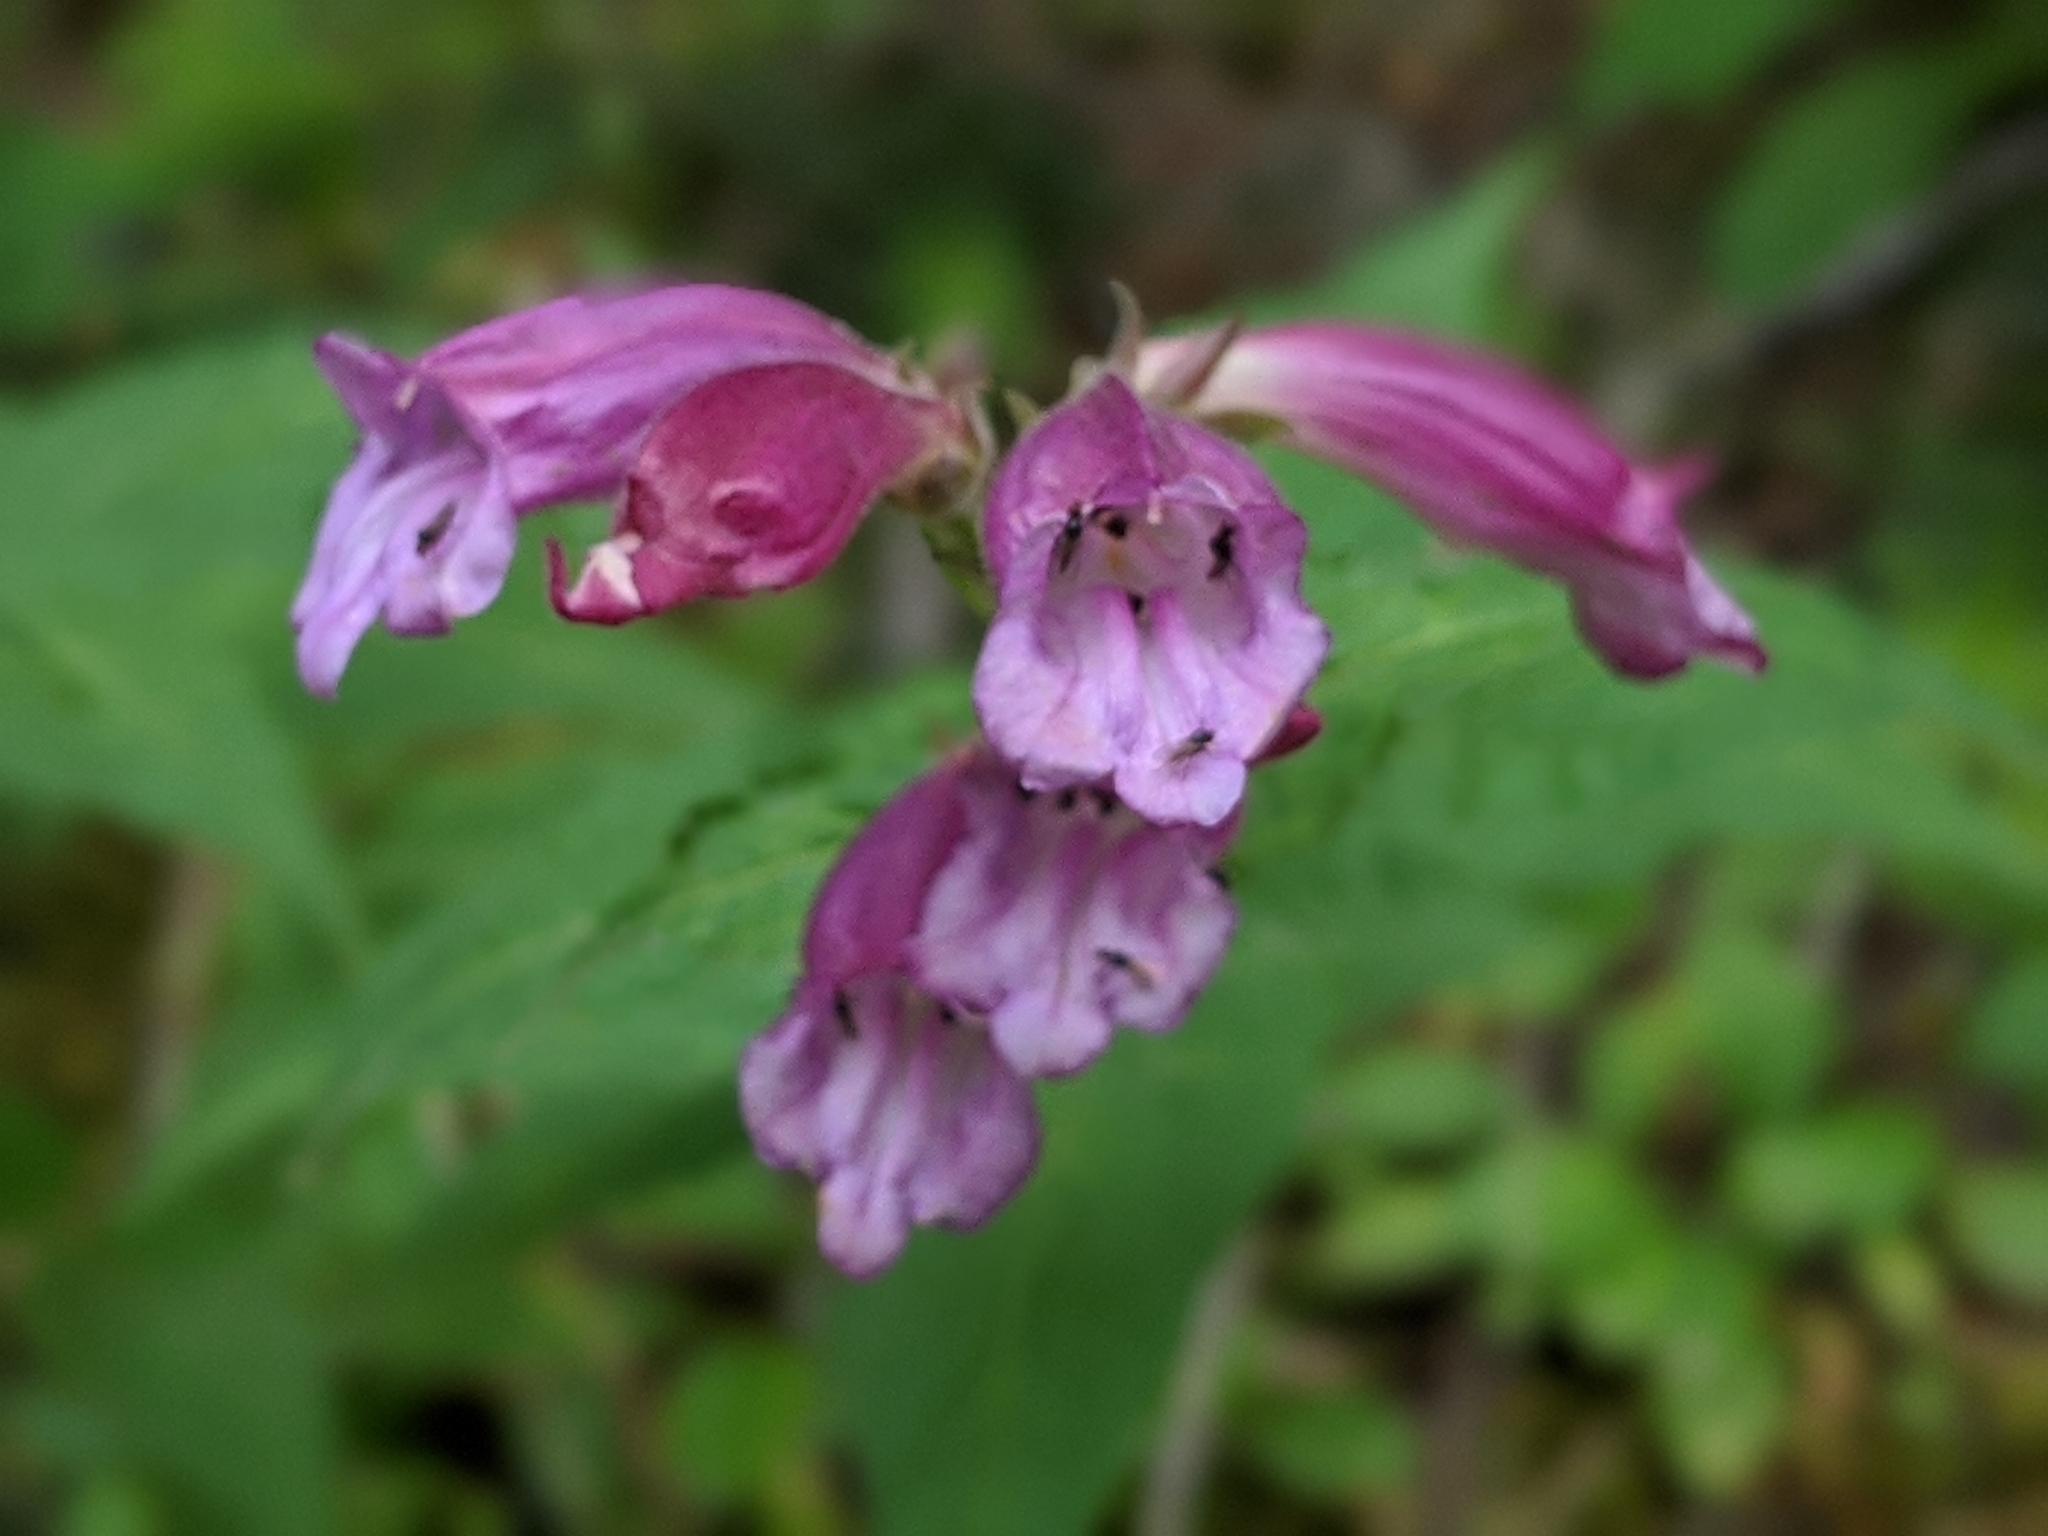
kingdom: Plantae
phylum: Tracheophyta
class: Magnoliopsida
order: Lamiales
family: Plantaginaceae
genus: Nothochelone
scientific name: Nothochelone nemorosa
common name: Woodland beardtongue
